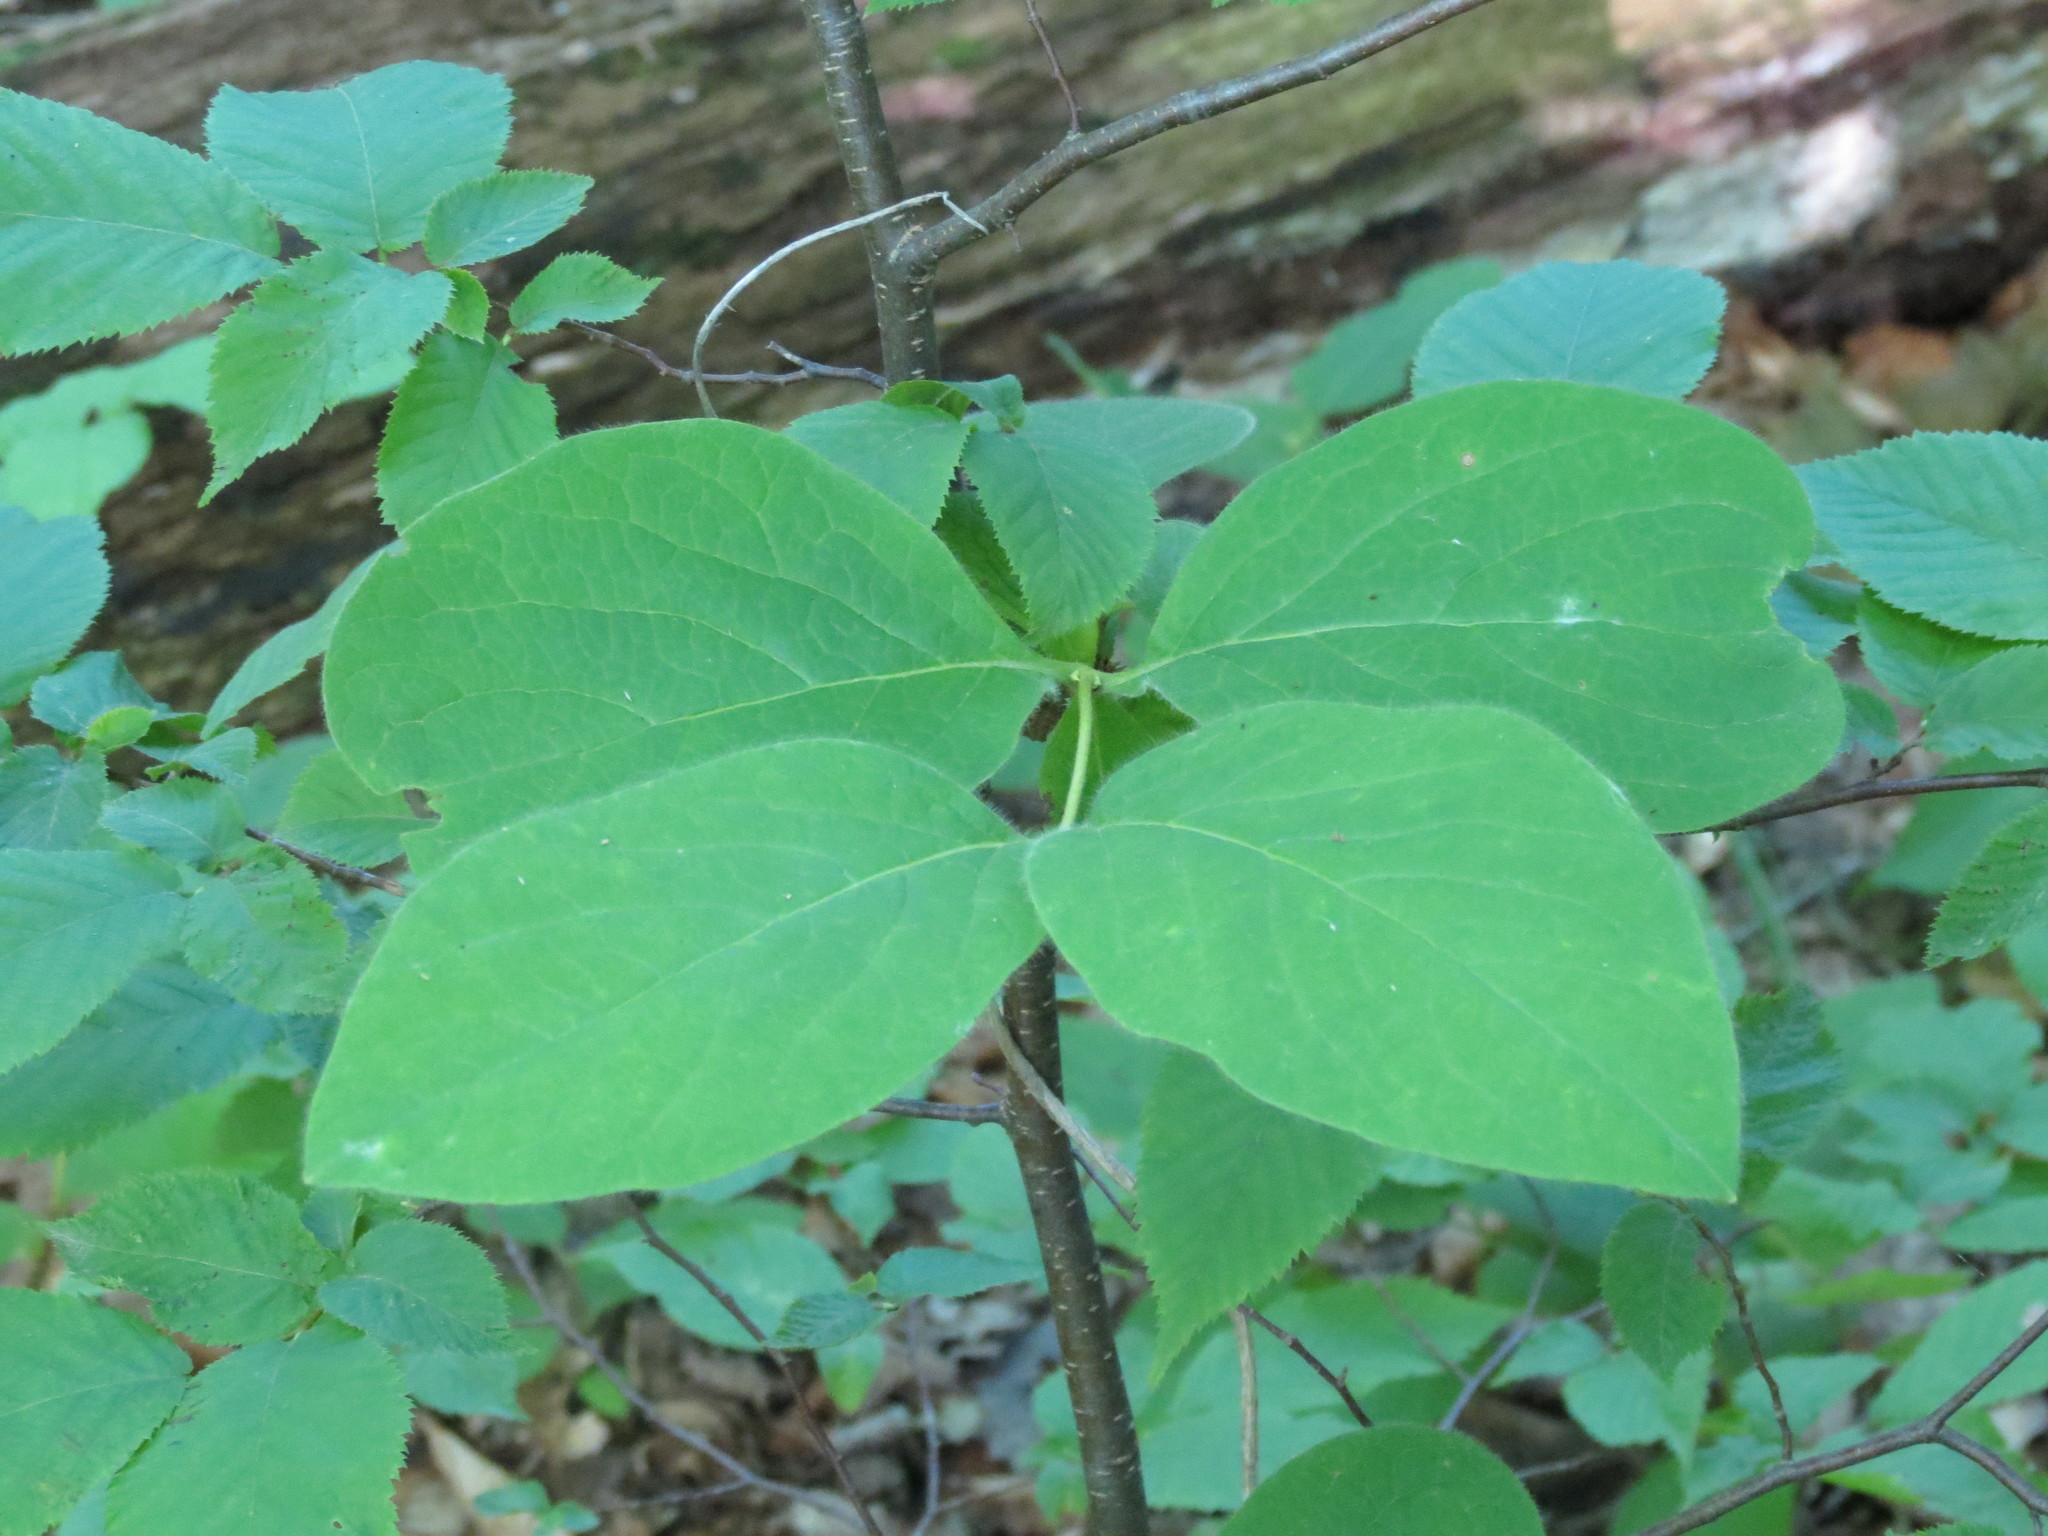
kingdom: Plantae
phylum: Tracheophyta
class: Magnoliopsida
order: Dipsacales
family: Caprifoliaceae
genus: Lonicera
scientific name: Lonicera hirsuta
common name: Hairy honeysuckle
